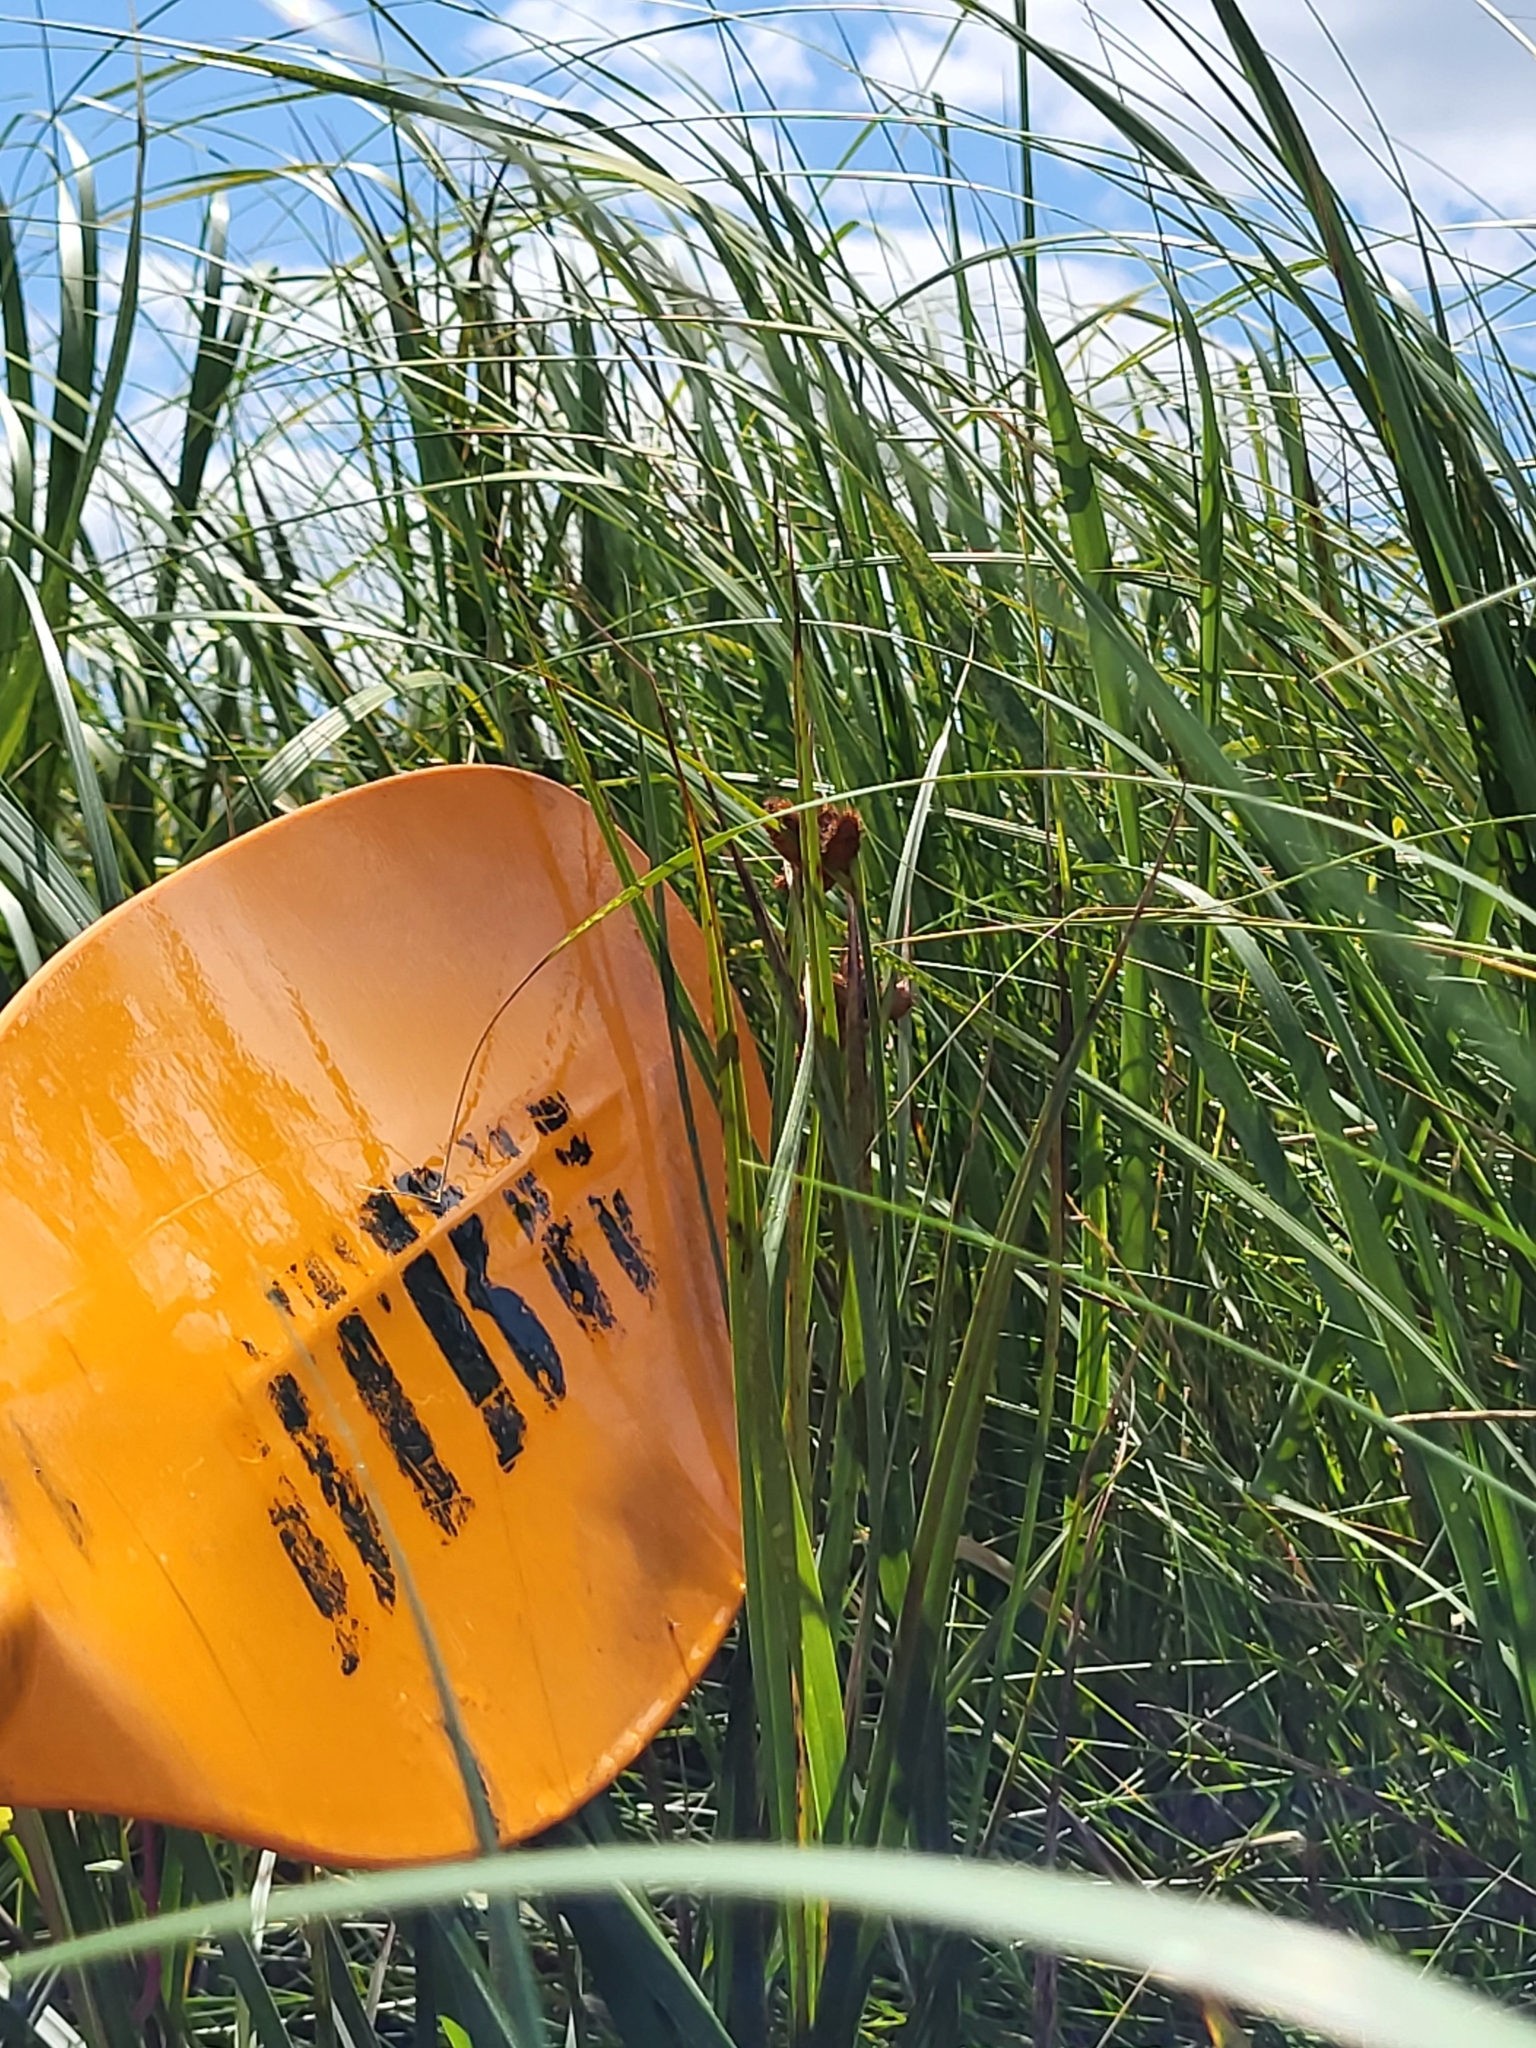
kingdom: Plantae
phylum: Tracheophyta
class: Liliopsida
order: Poales
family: Cyperaceae
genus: Bolboschoenus
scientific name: Bolboschoenus robustus
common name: Seacoast bulrush
